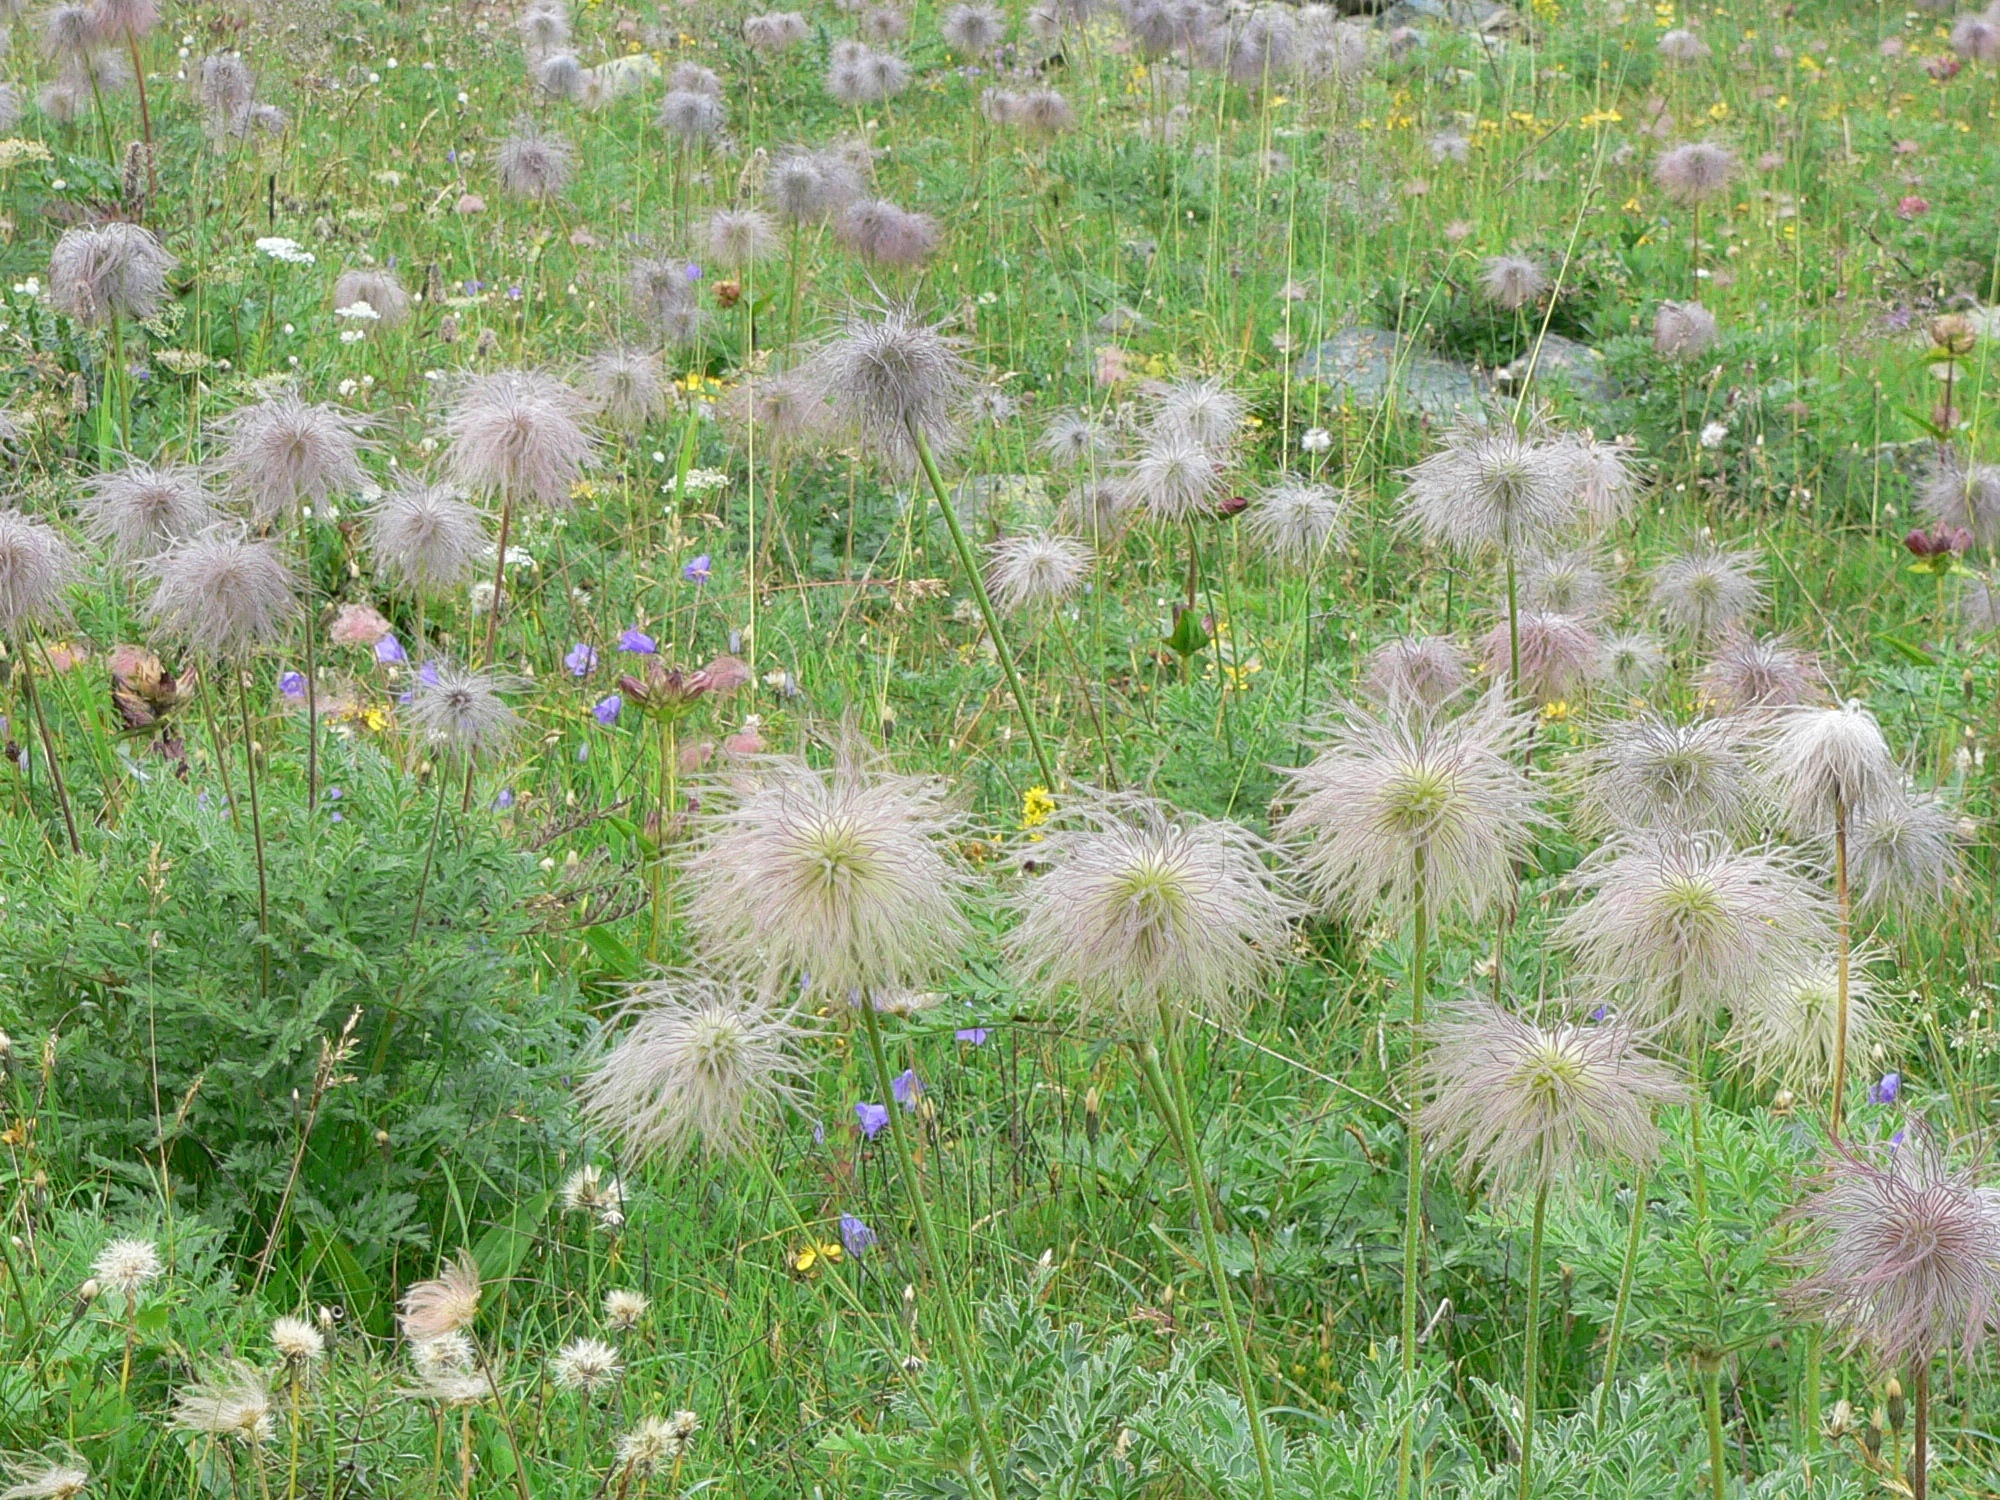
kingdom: Plantae
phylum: Tracheophyta
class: Magnoliopsida
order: Ranunculales
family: Ranunculaceae
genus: Pulsatilla
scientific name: Pulsatilla alpina
